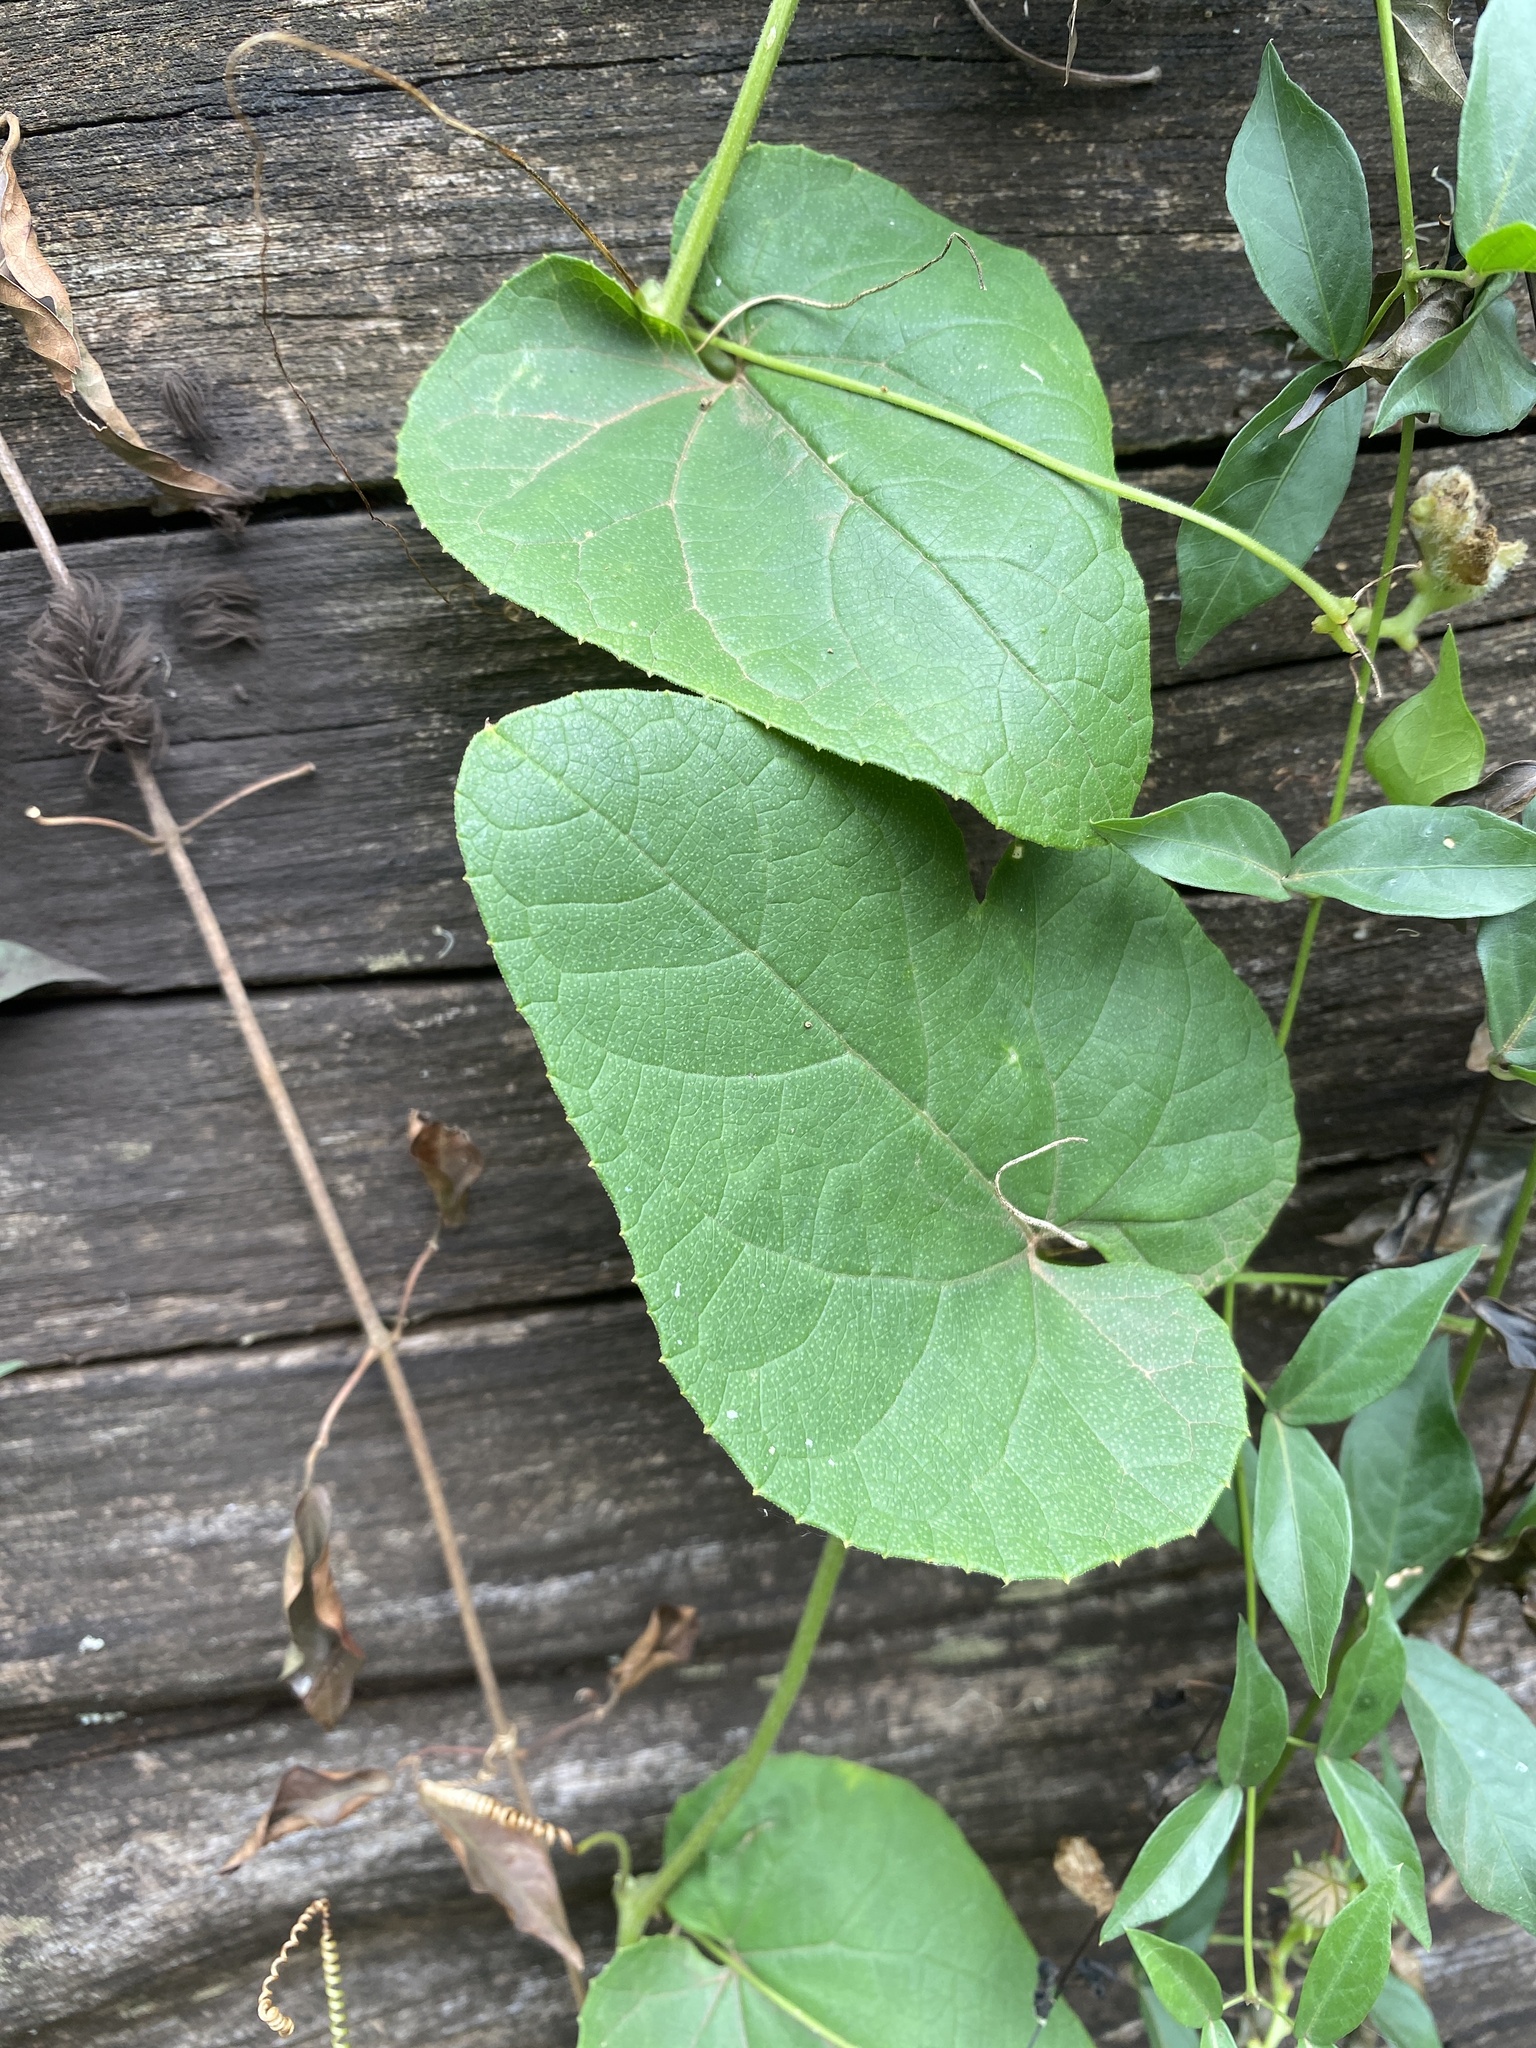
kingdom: Plantae
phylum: Tracheophyta
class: Magnoliopsida
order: Cucurbitales
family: Cucurbitaceae
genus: Coccinia
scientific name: Coccinia adoensis
